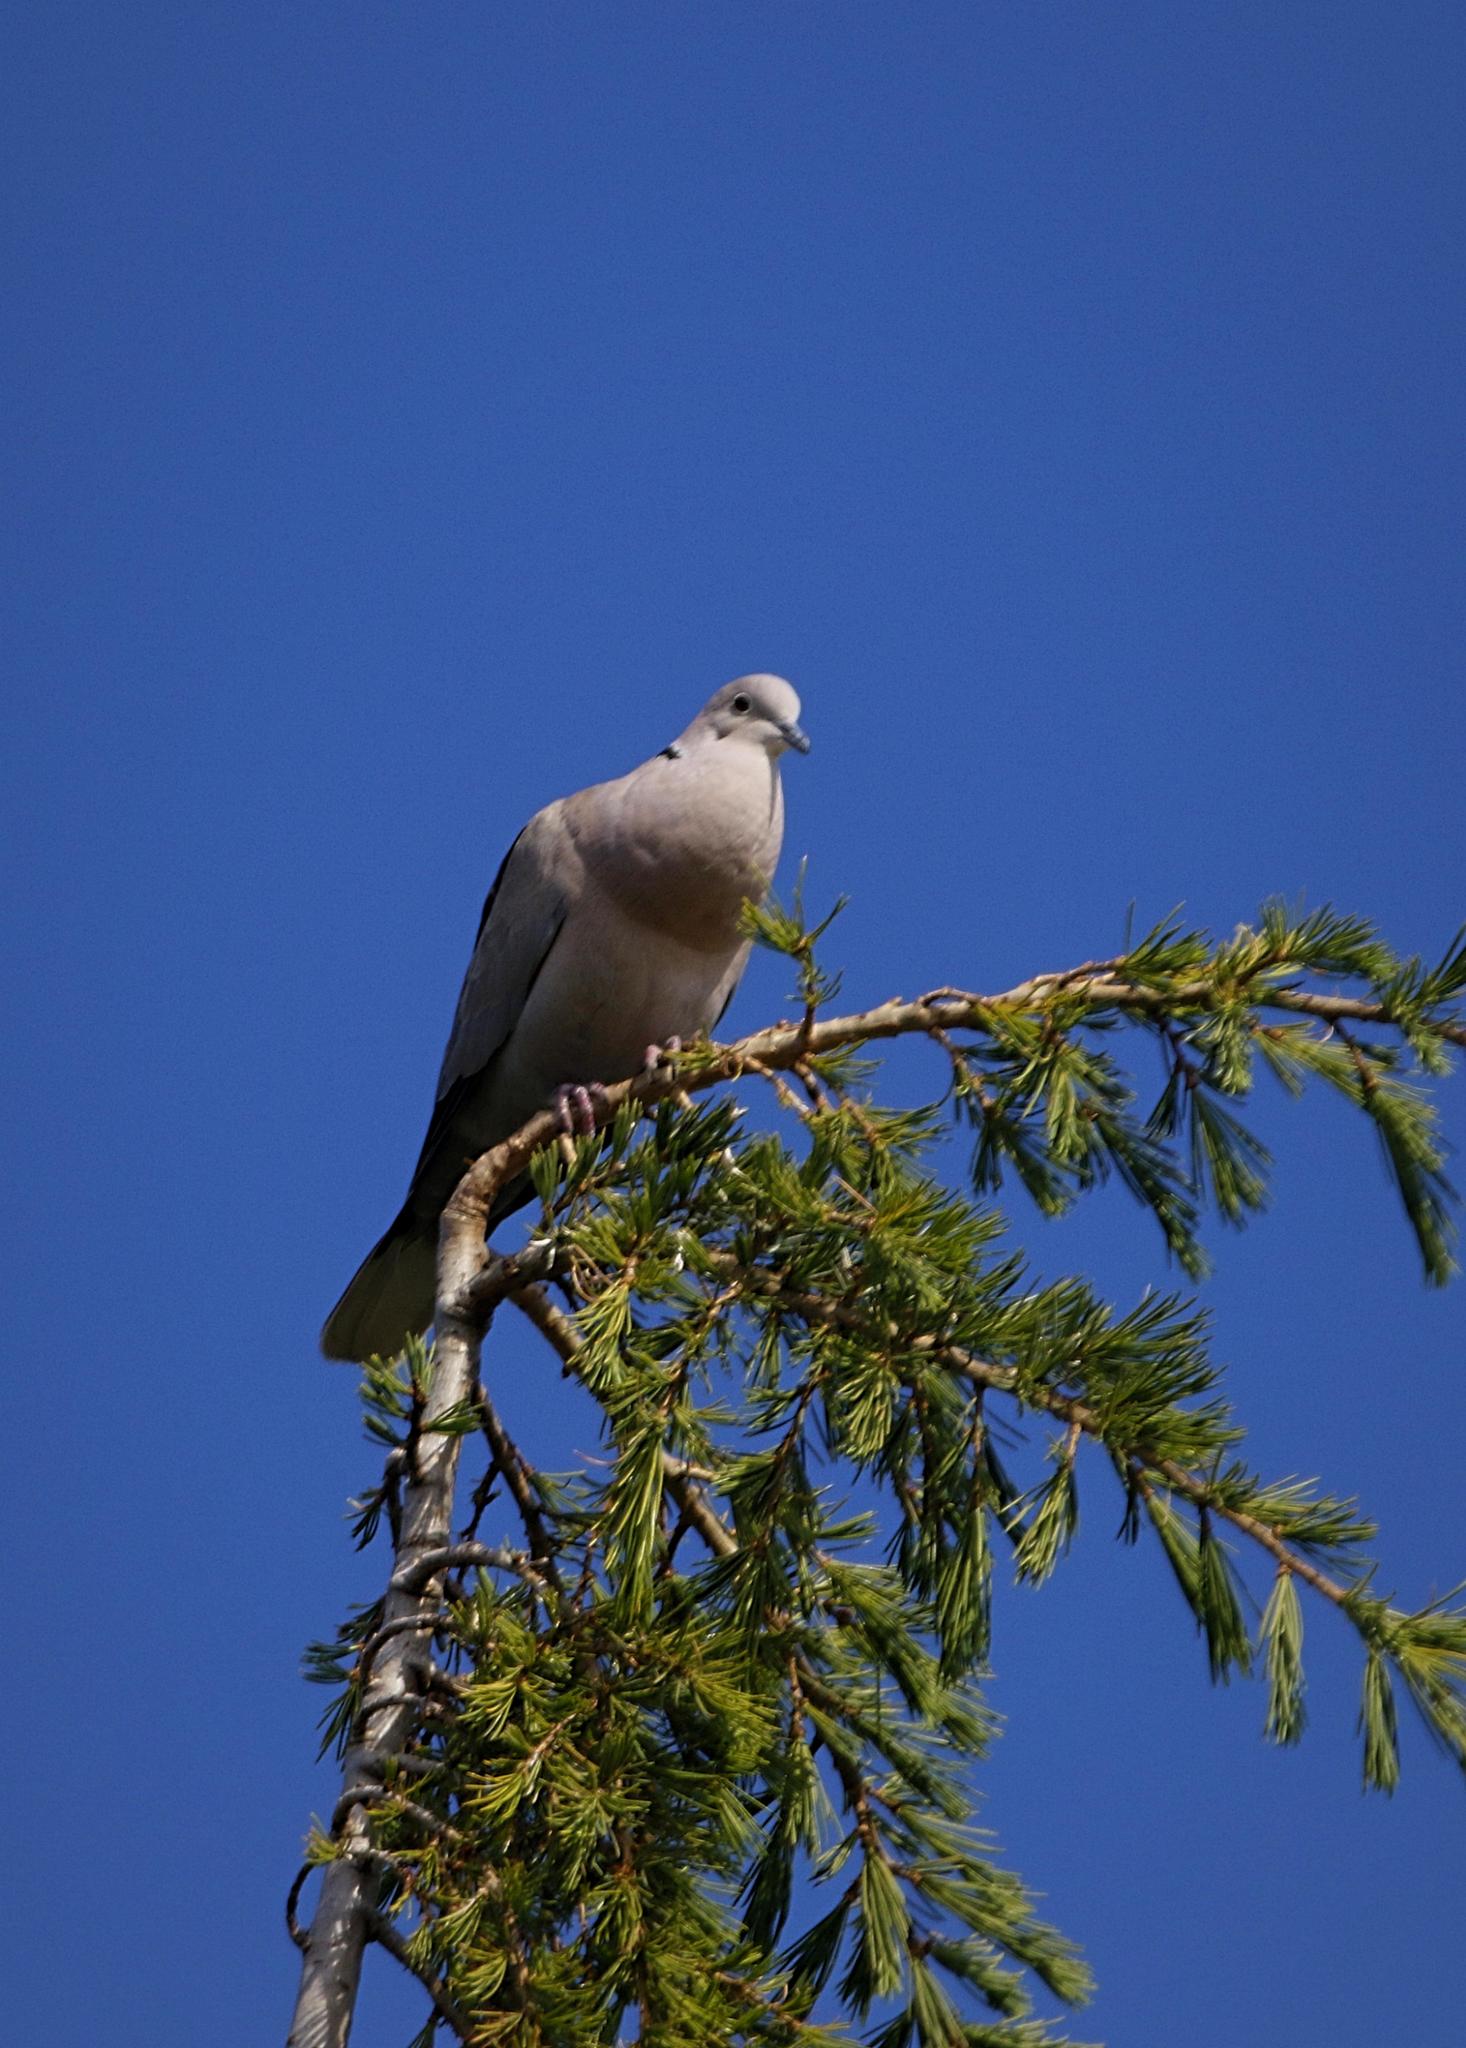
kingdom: Animalia
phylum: Chordata
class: Aves
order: Columbiformes
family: Columbidae
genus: Streptopelia
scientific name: Streptopelia decaocto
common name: Eurasian collared dove
